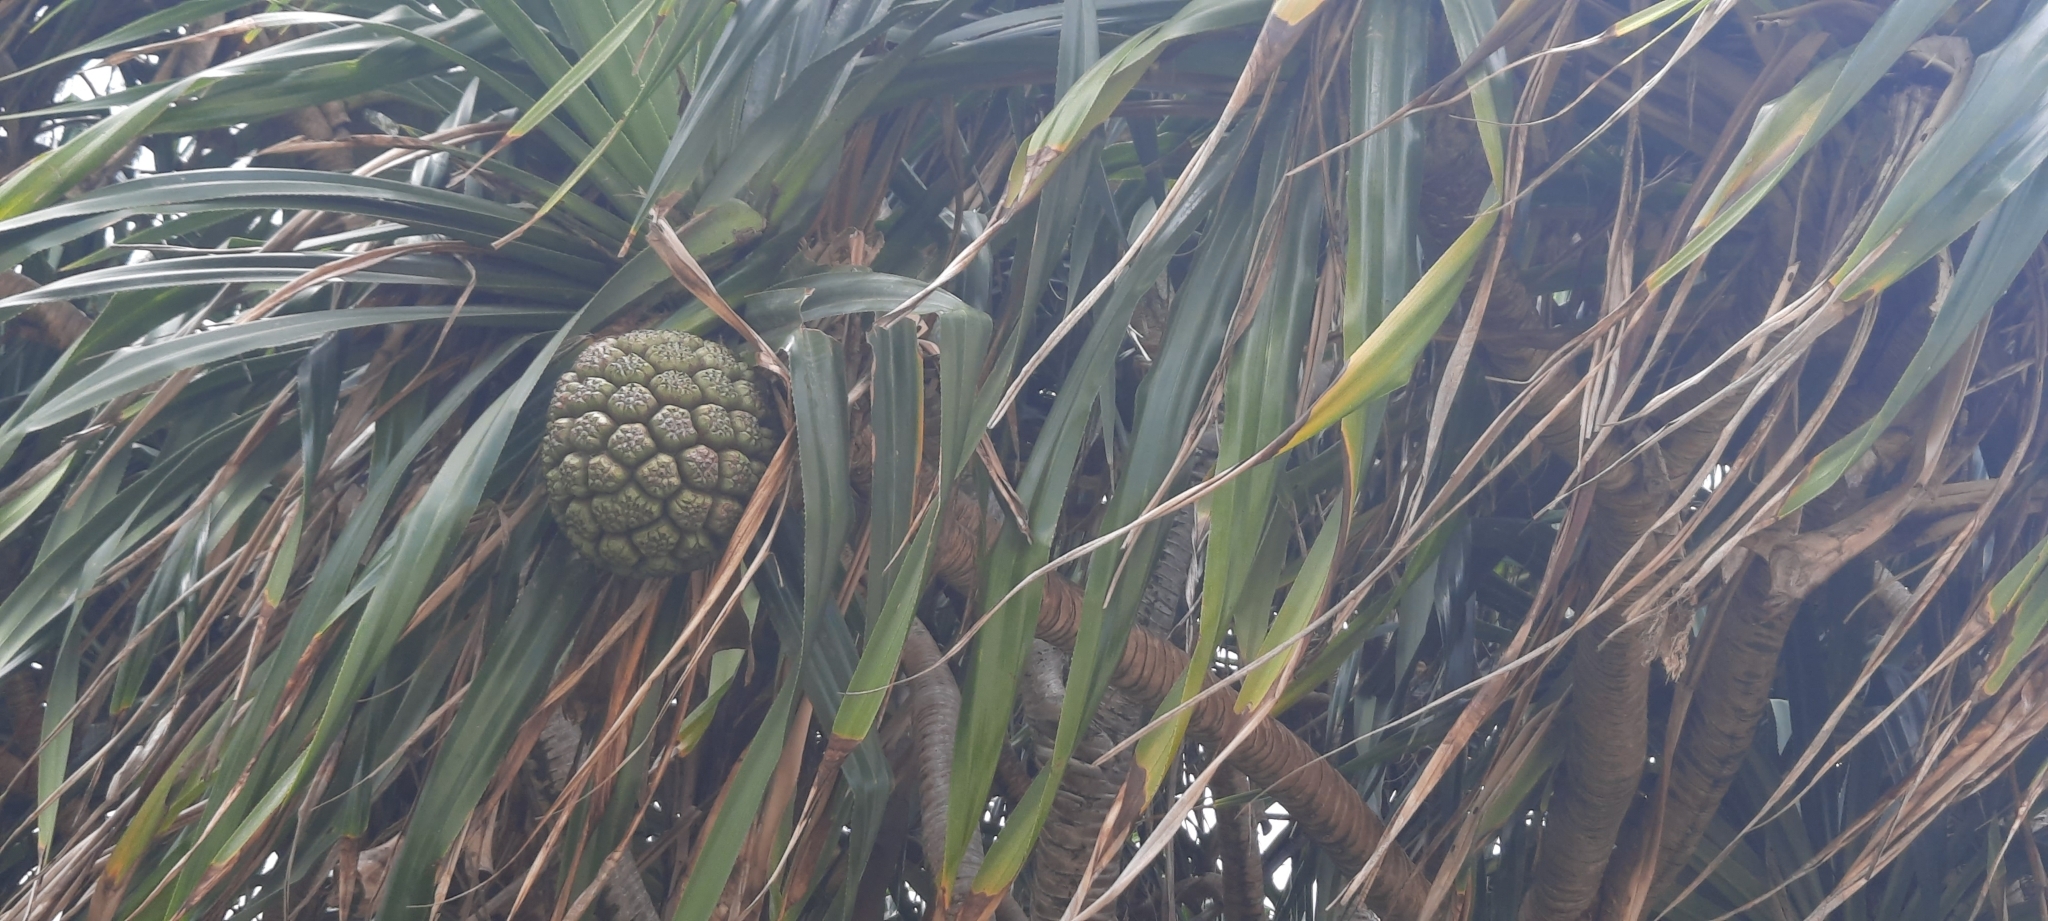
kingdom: Plantae
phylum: Tracheophyta
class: Liliopsida
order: Pandanales
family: Pandanaceae
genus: Pandanus
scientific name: Pandanus tectorius
